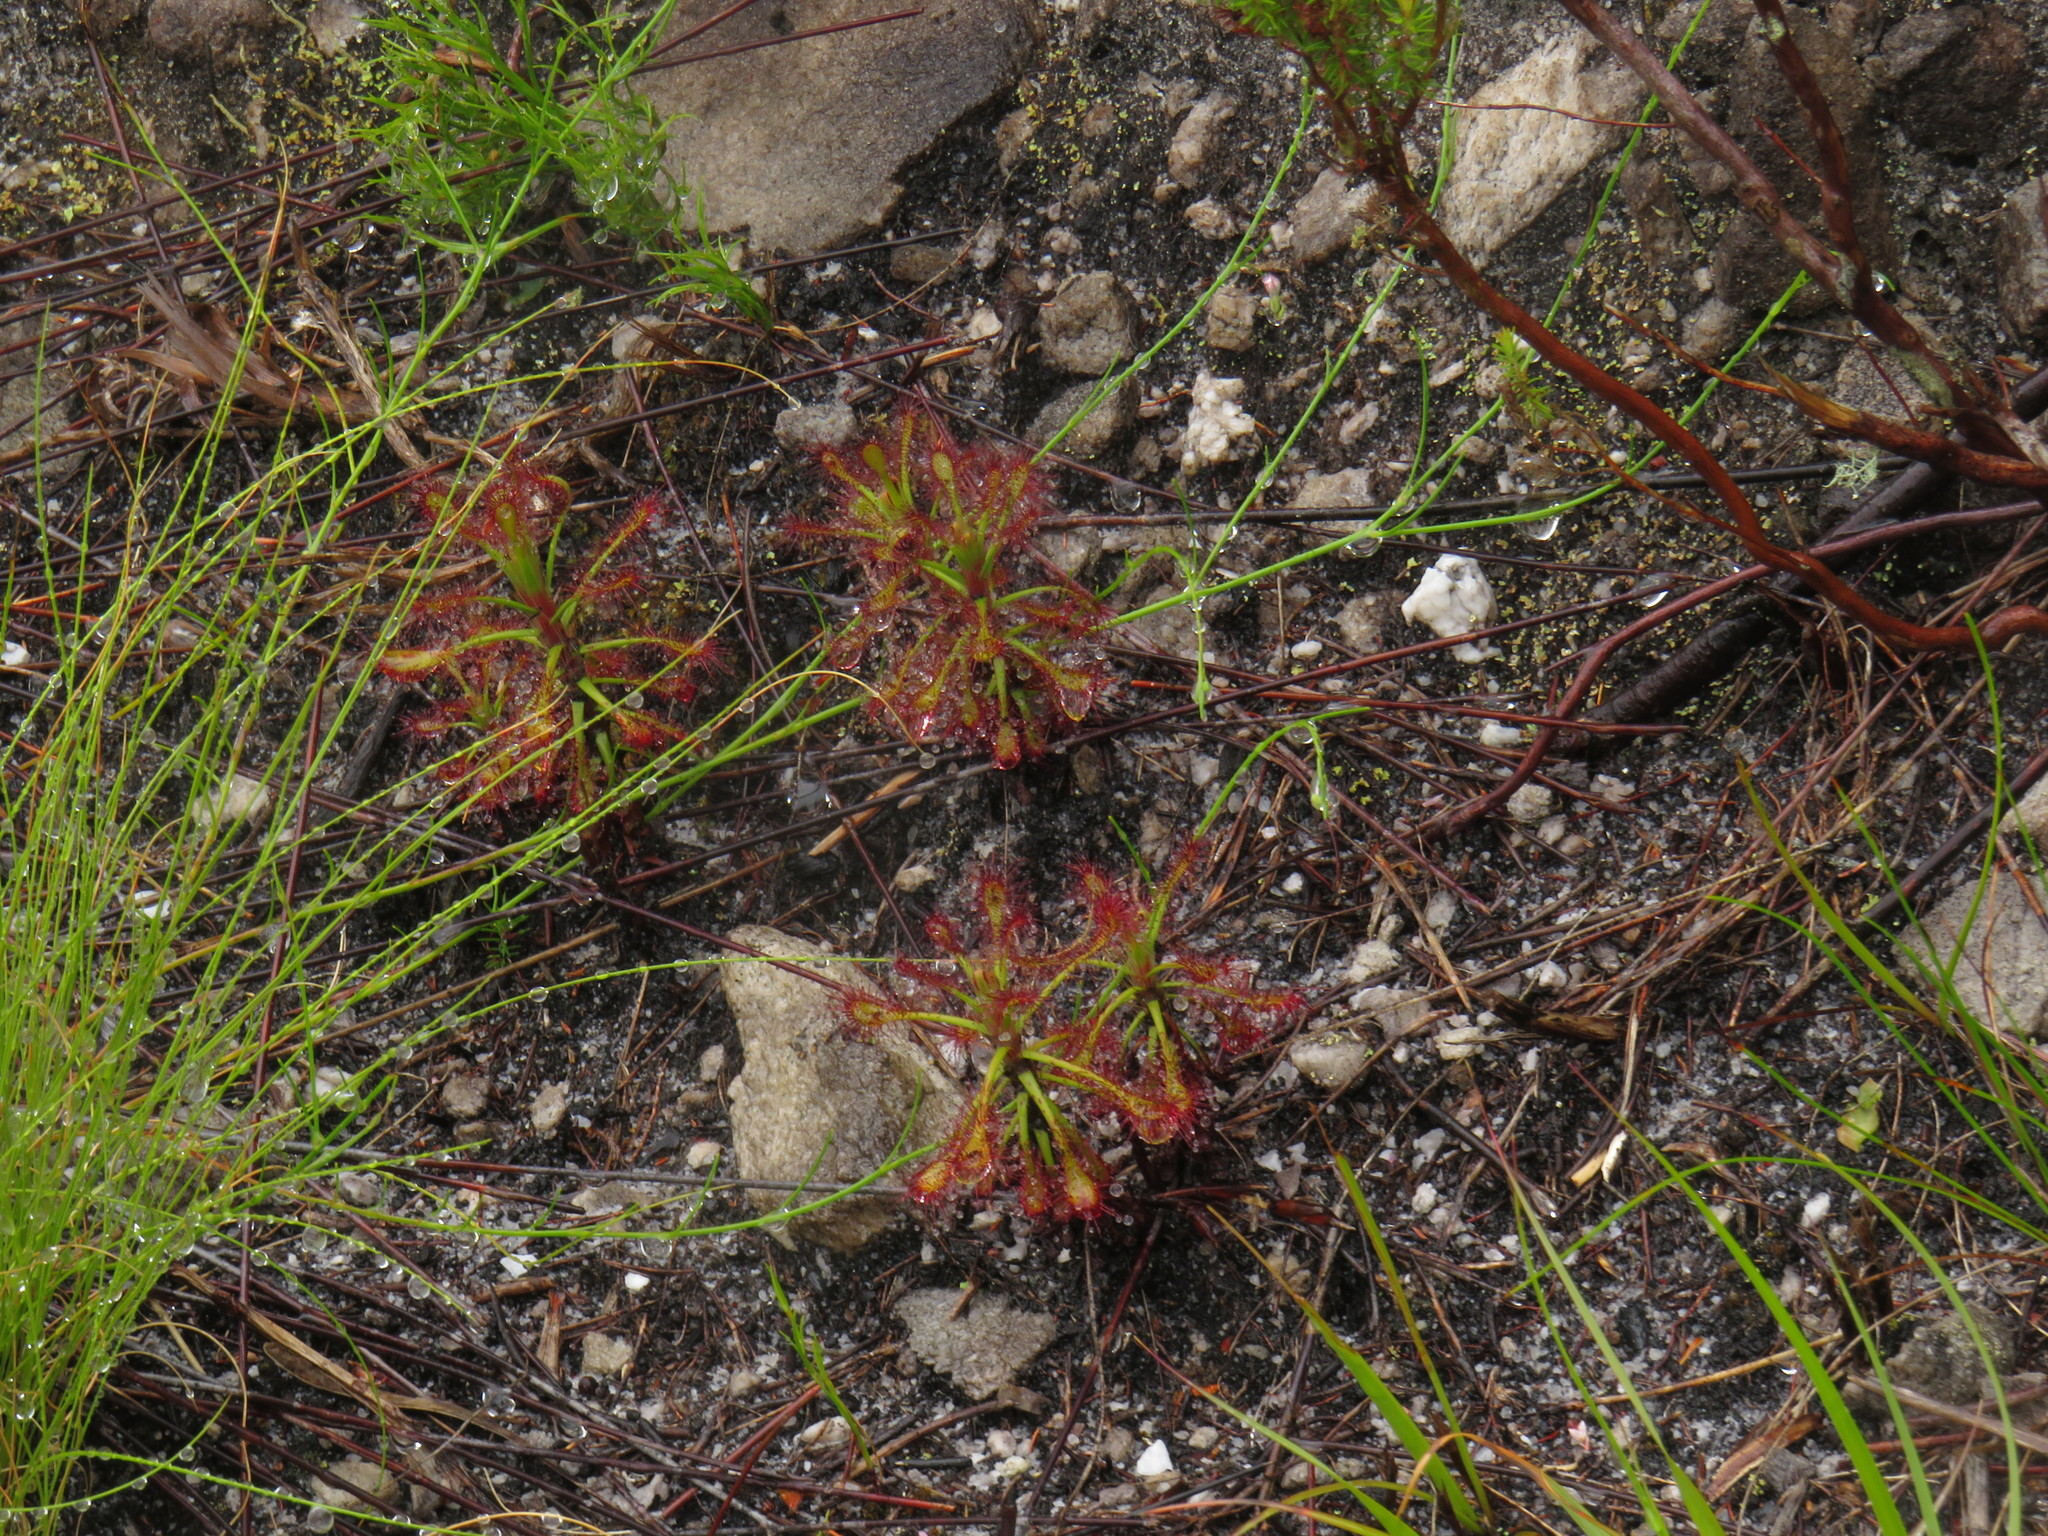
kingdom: Plantae
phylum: Tracheophyta
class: Magnoliopsida
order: Caryophyllales
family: Droseraceae
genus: Drosera
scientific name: Drosera glabripes
